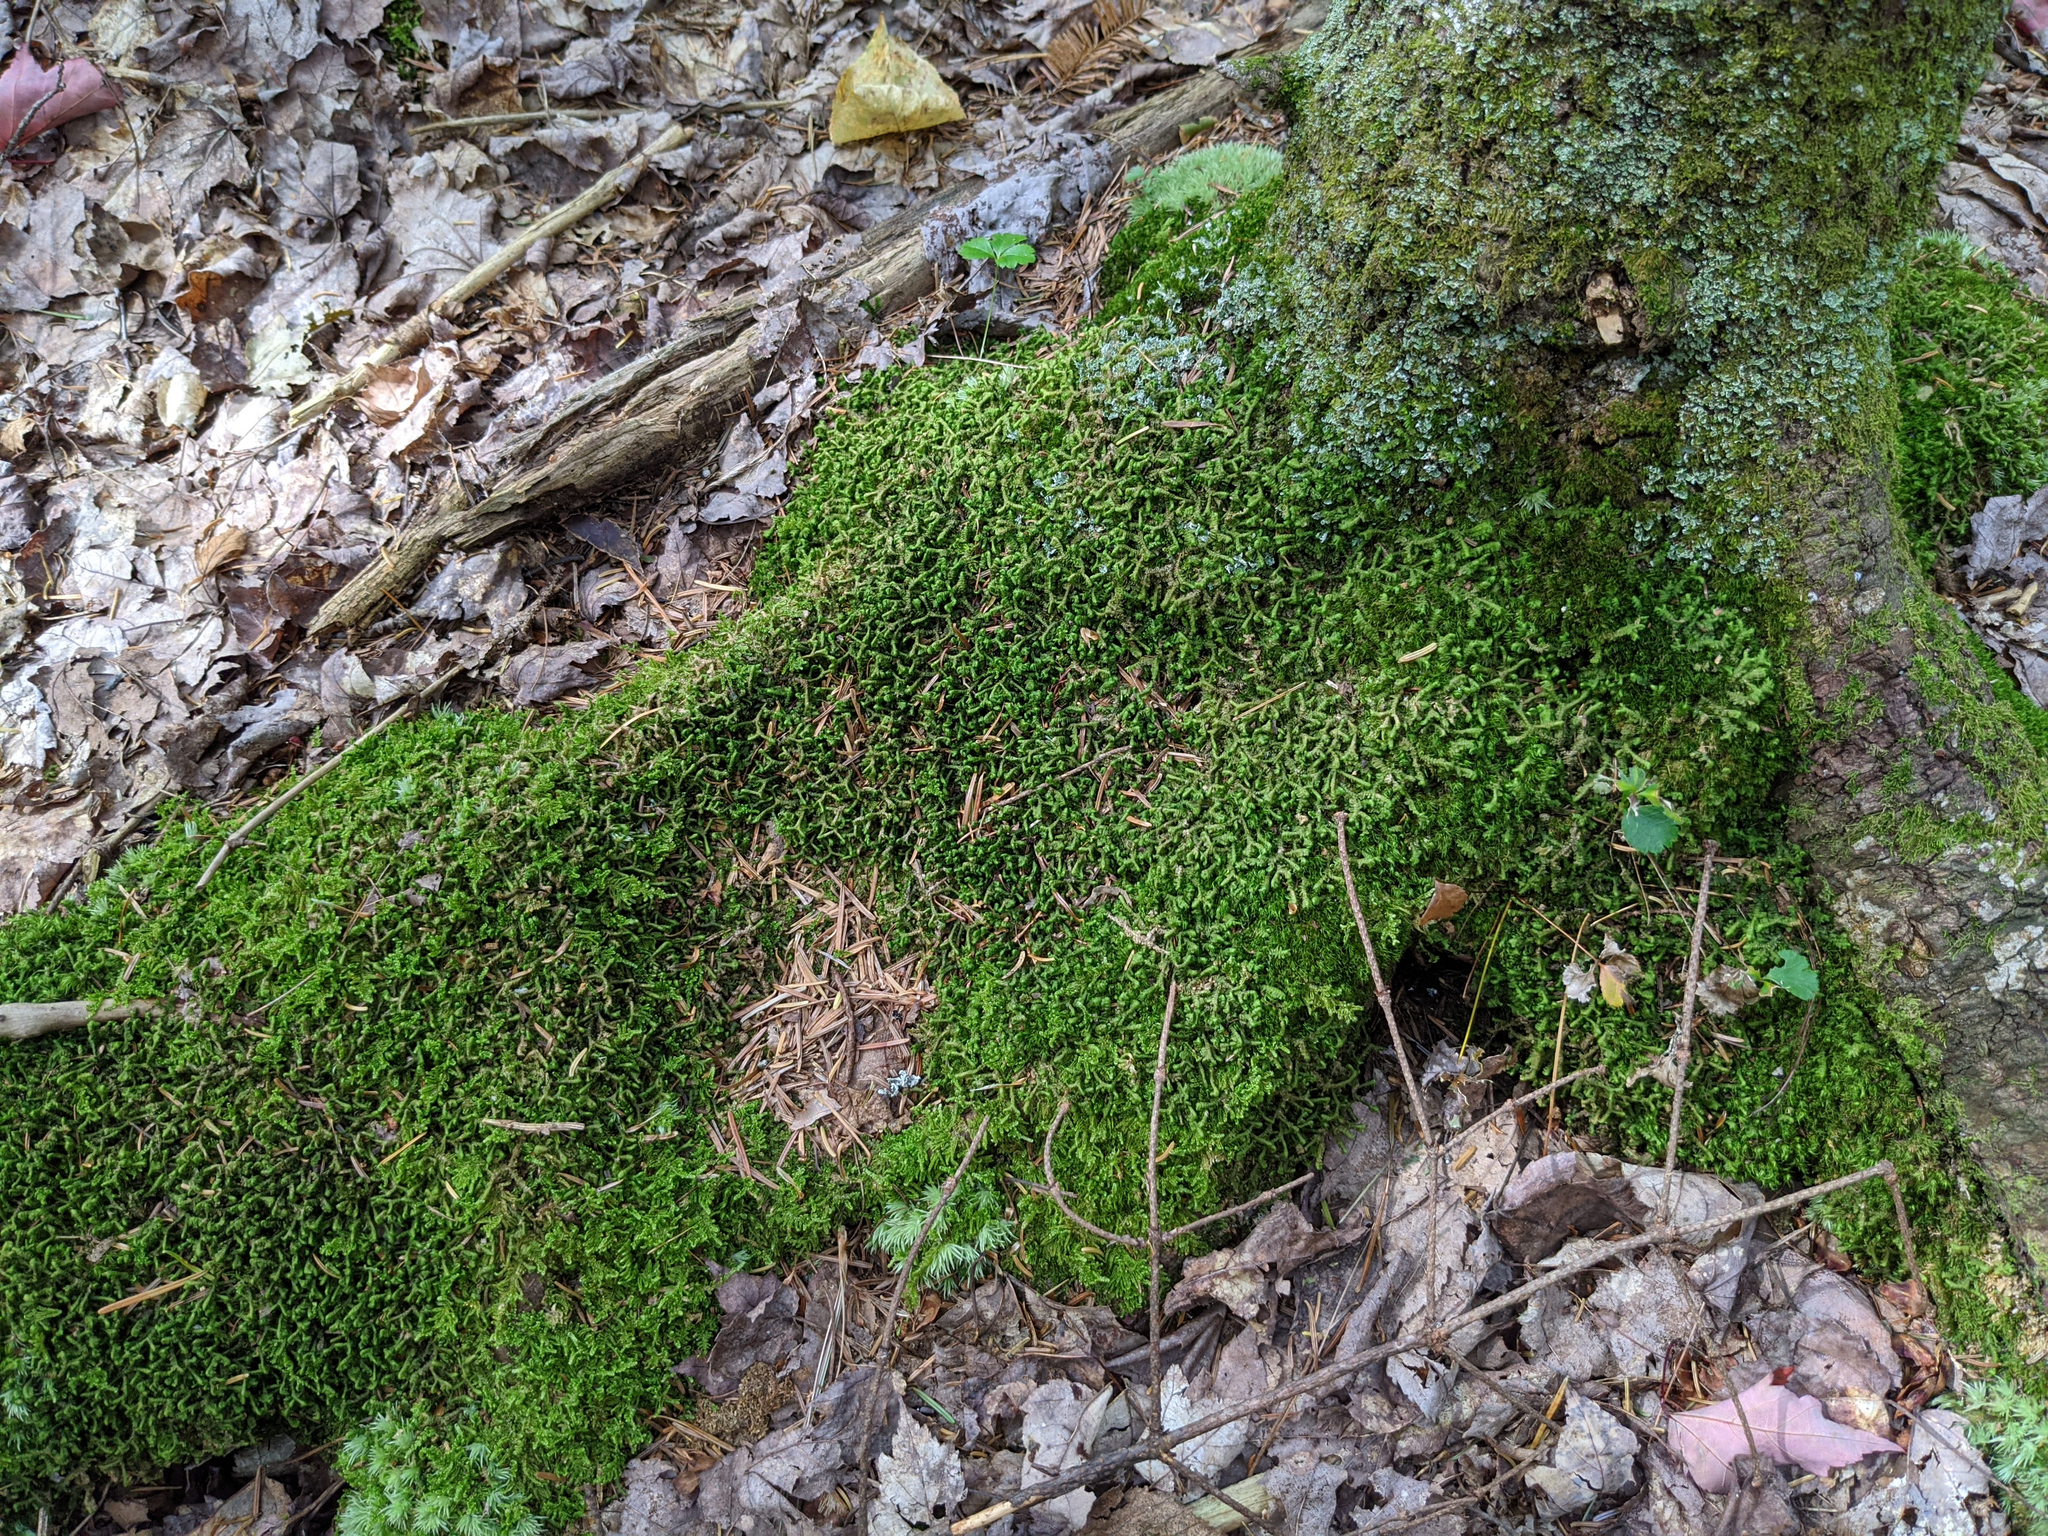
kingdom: Plantae
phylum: Marchantiophyta
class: Jungermanniopsida
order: Jungermanniales
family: Lepidoziaceae
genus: Bazzania
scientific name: Bazzania trilobata
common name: Three-lobed whipwort
